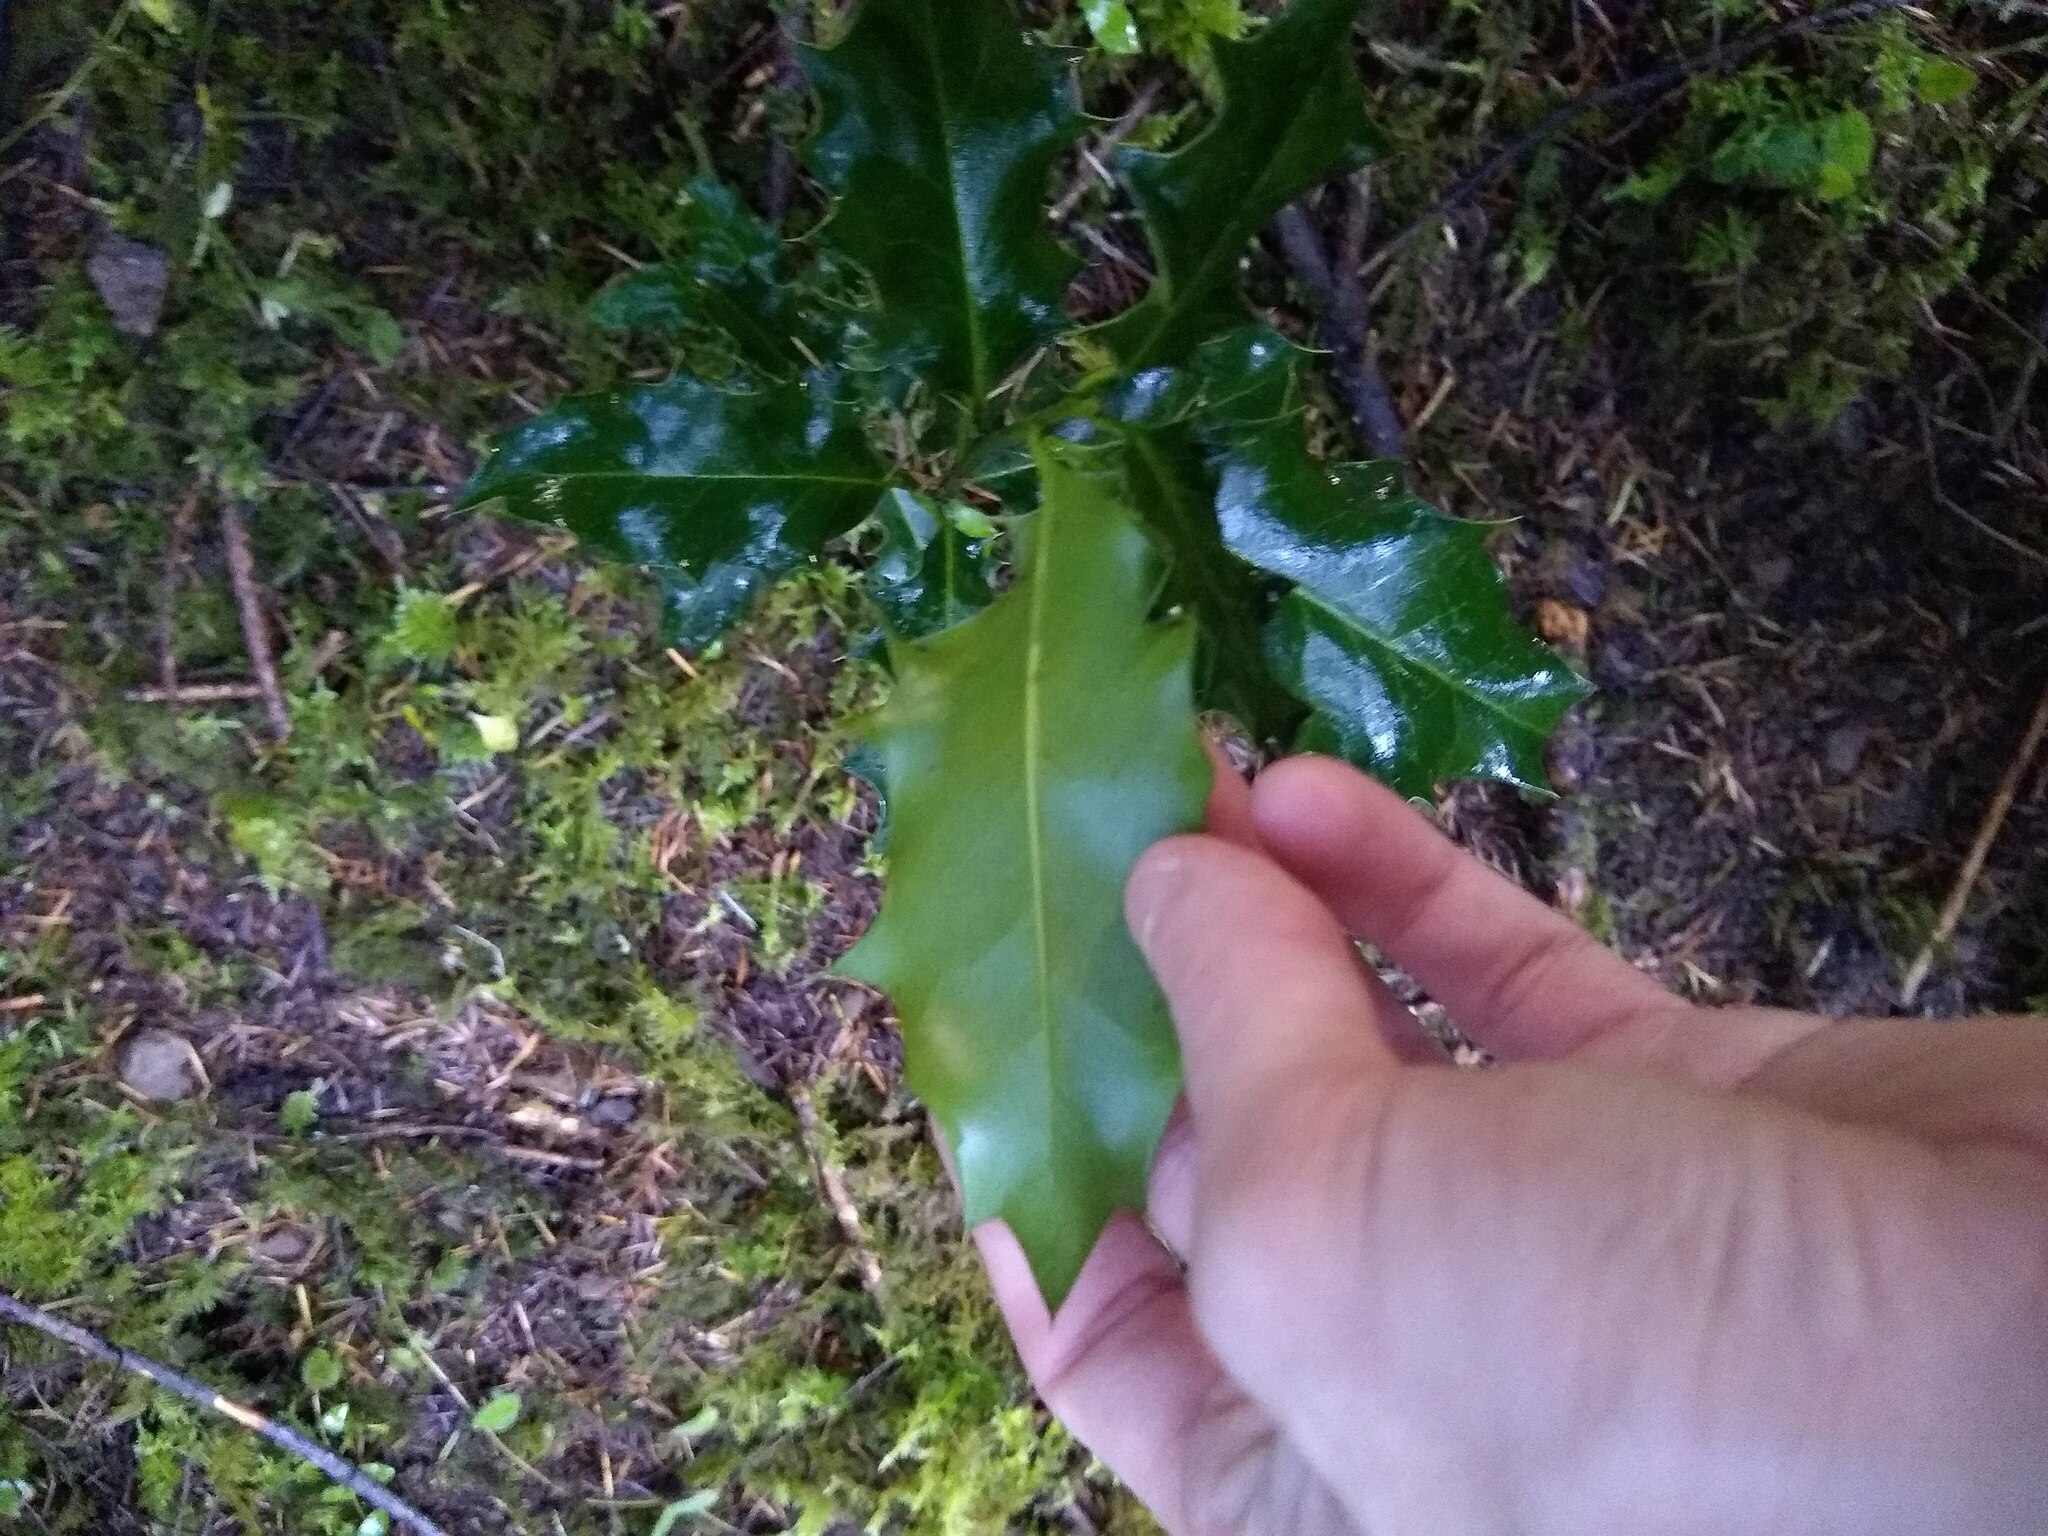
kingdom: Plantae
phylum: Tracheophyta
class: Magnoliopsida
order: Aquifoliales
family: Aquifoliaceae
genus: Ilex
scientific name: Ilex aquifolium
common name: English holly
